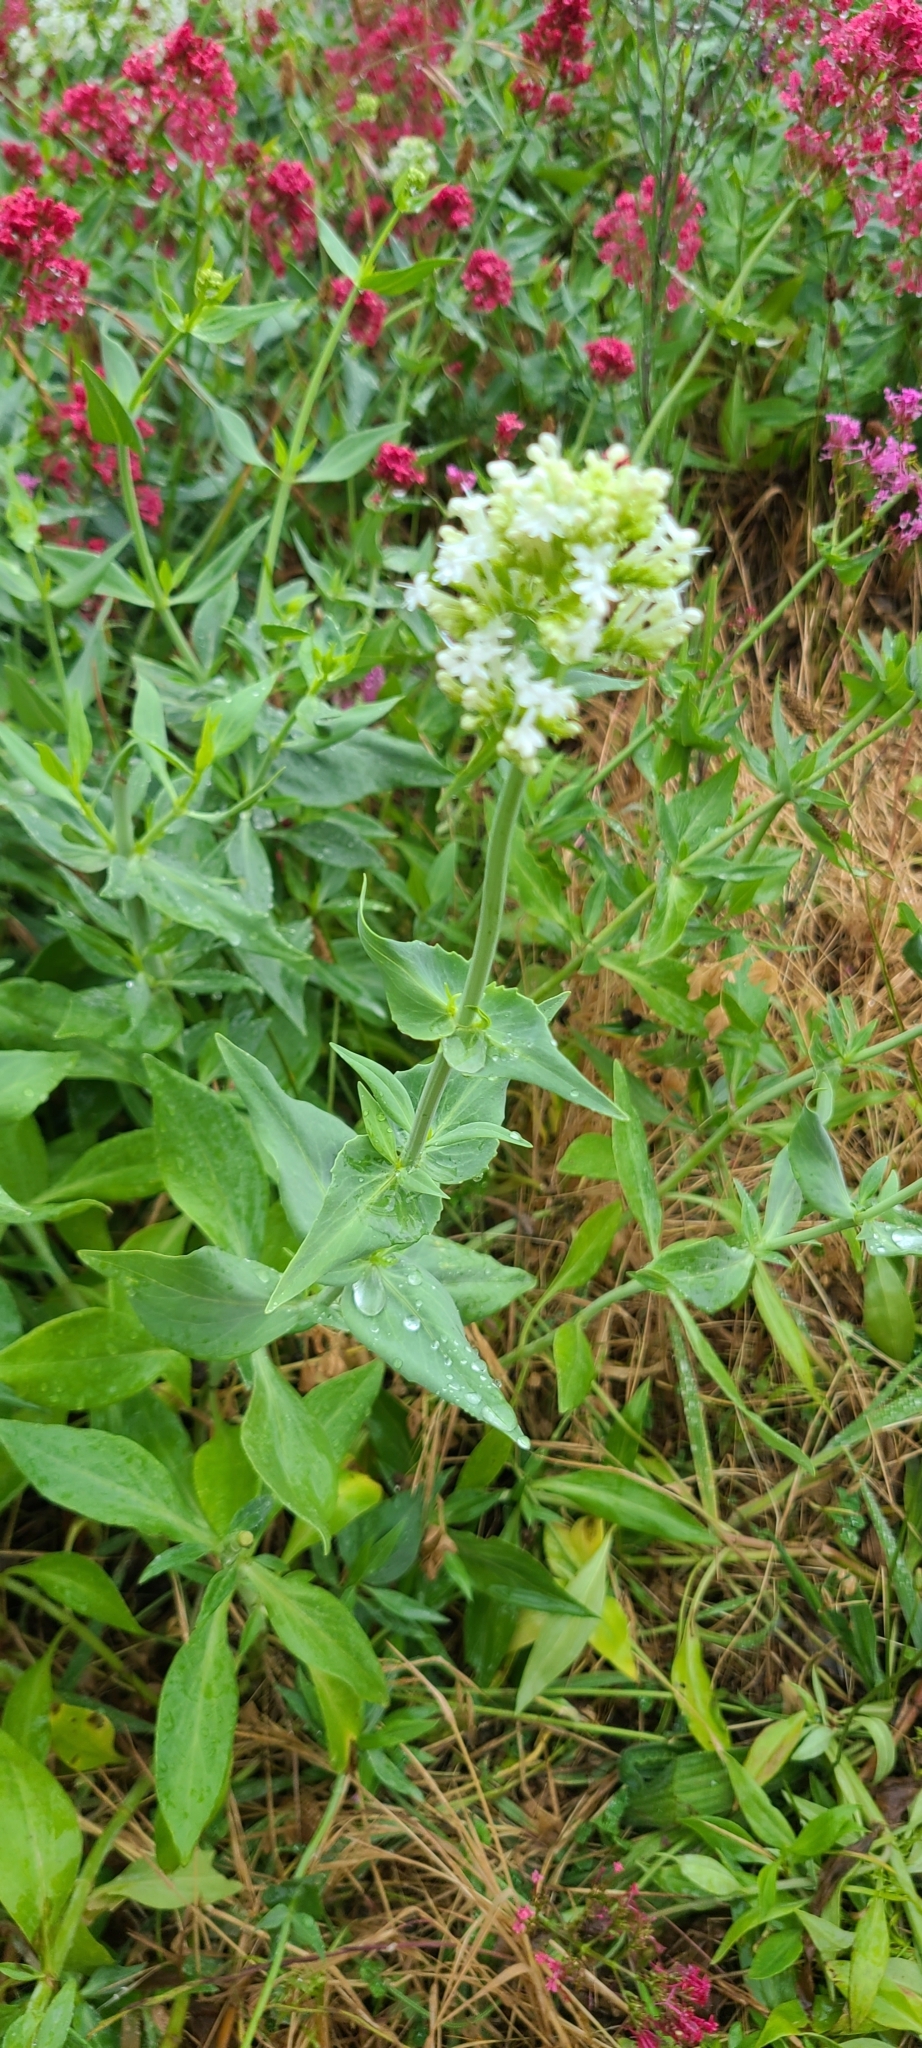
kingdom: Plantae
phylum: Tracheophyta
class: Magnoliopsida
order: Dipsacales
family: Caprifoliaceae
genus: Centranthus
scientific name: Centranthus ruber
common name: Red valerian
